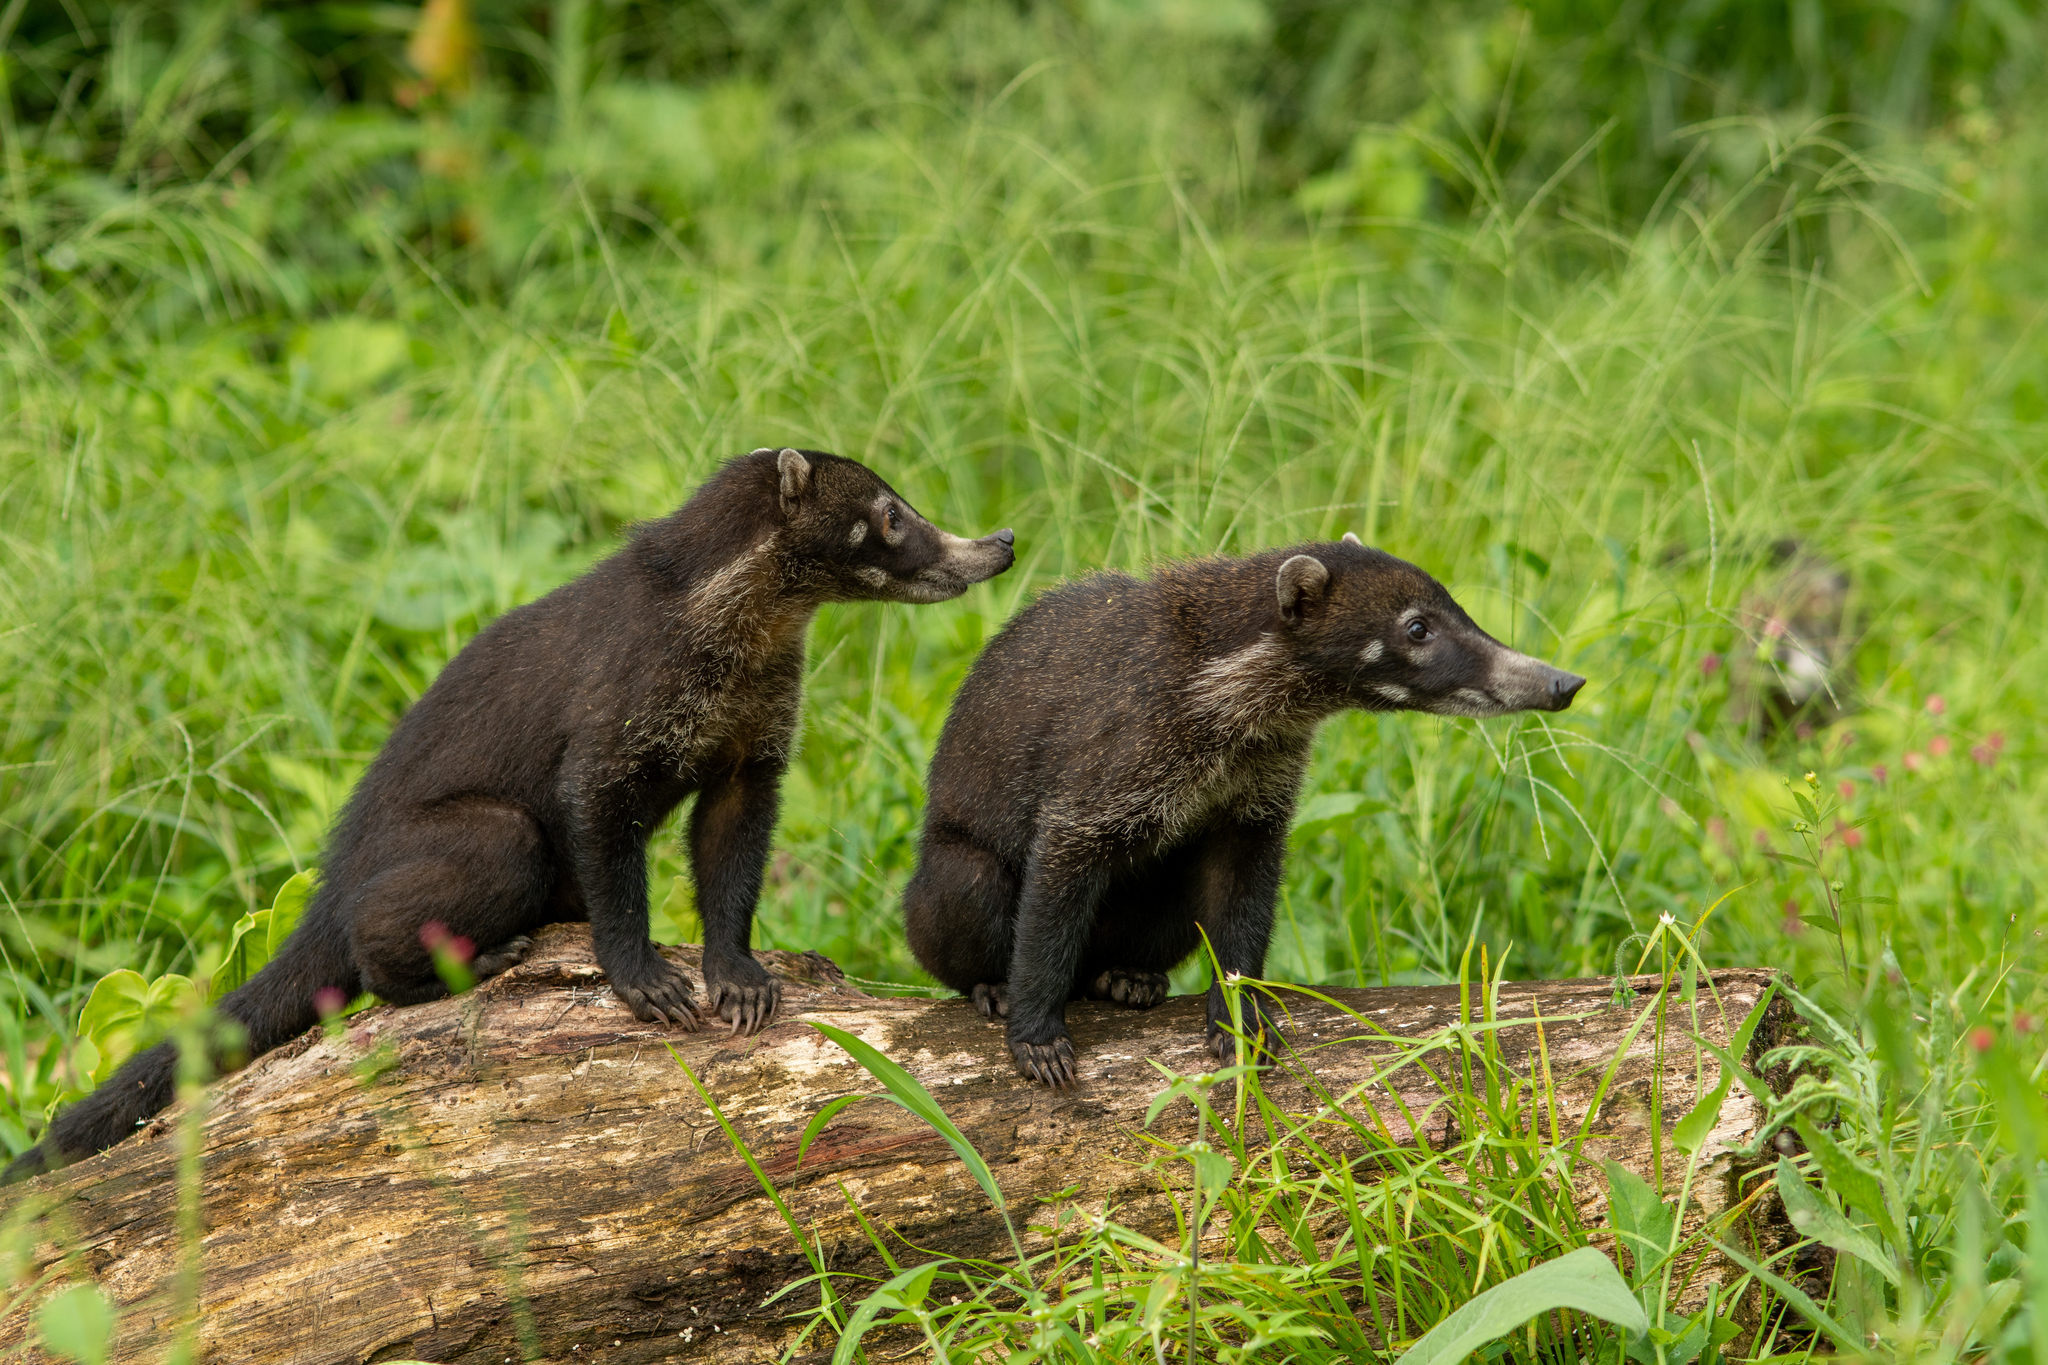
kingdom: Animalia
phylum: Chordata
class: Mammalia
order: Carnivora
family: Procyonidae
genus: Nasua
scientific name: Nasua narica
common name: White-nosed coati
